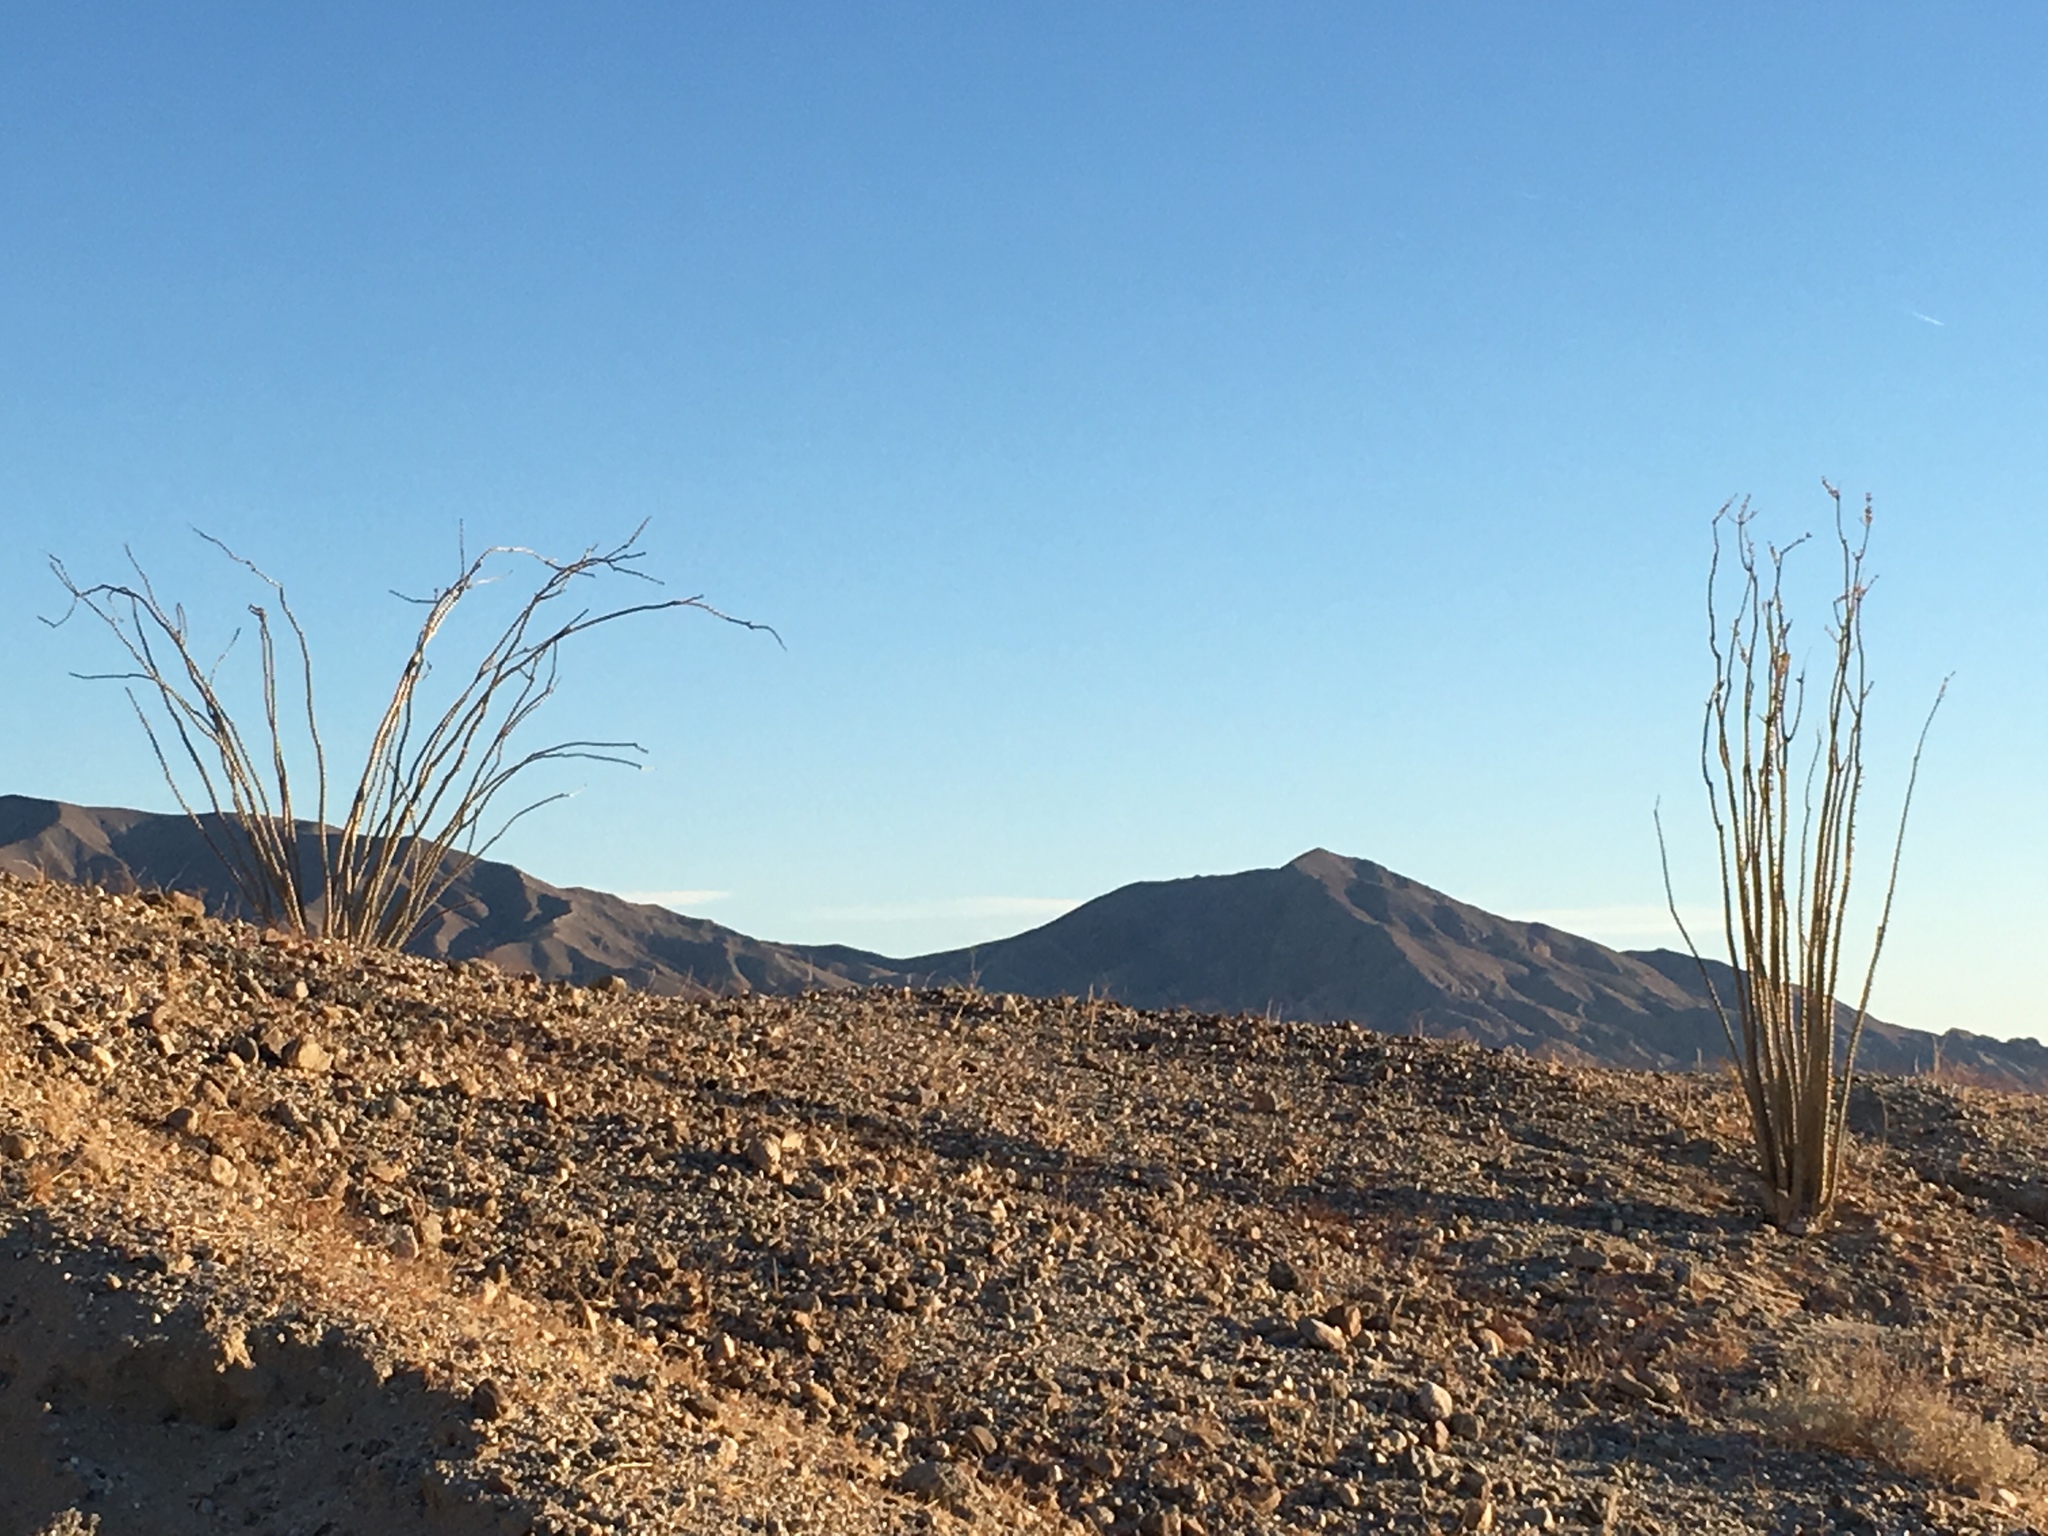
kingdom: Plantae
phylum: Tracheophyta
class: Magnoliopsida
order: Ericales
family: Fouquieriaceae
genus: Fouquieria
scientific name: Fouquieria splendens
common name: Vine-cactus
